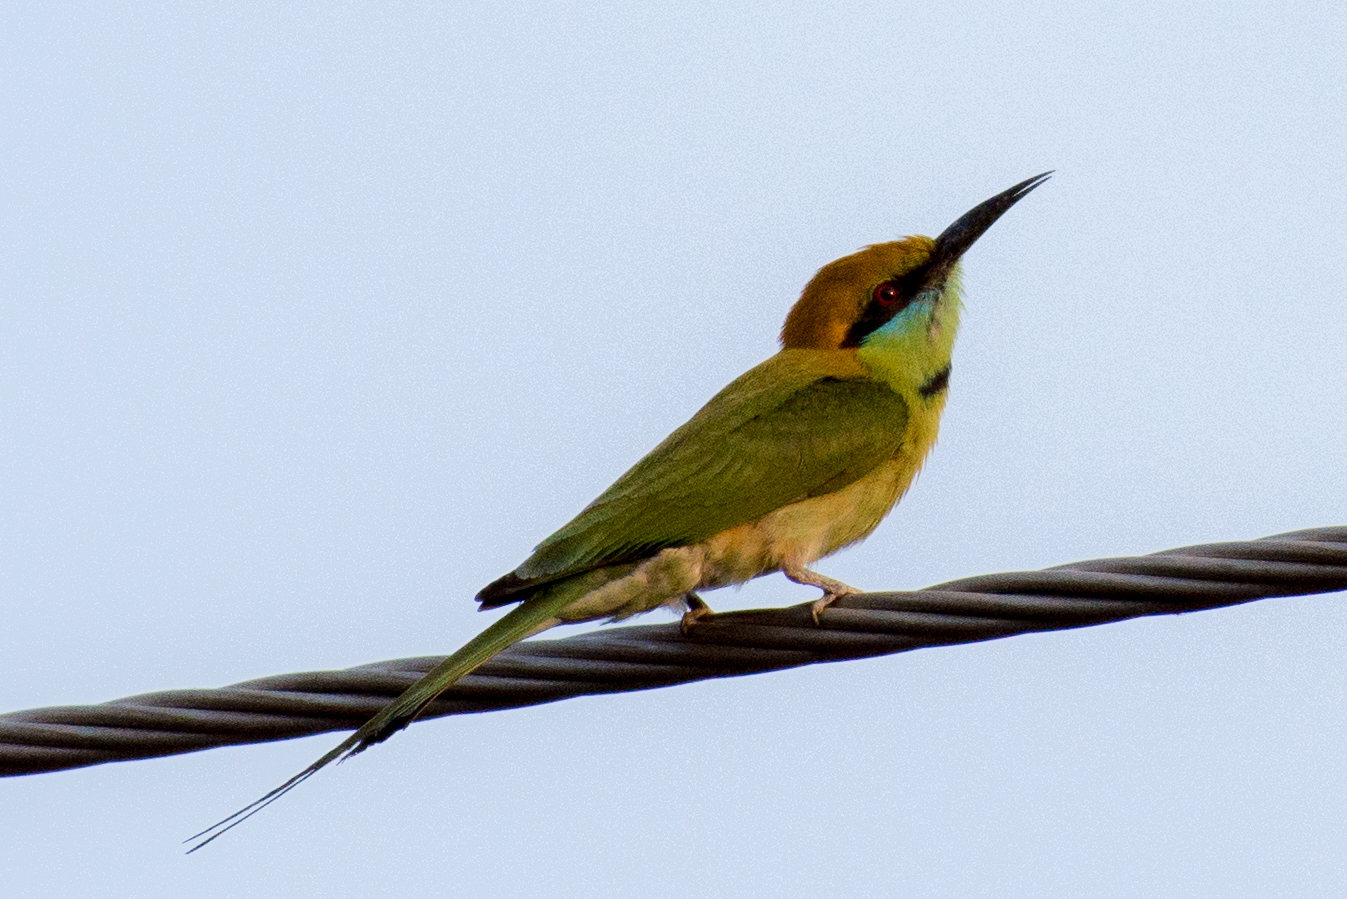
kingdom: Animalia
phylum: Chordata
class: Aves
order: Coraciiformes
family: Meropidae
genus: Merops
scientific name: Merops orientalis
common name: Green bee-eater
